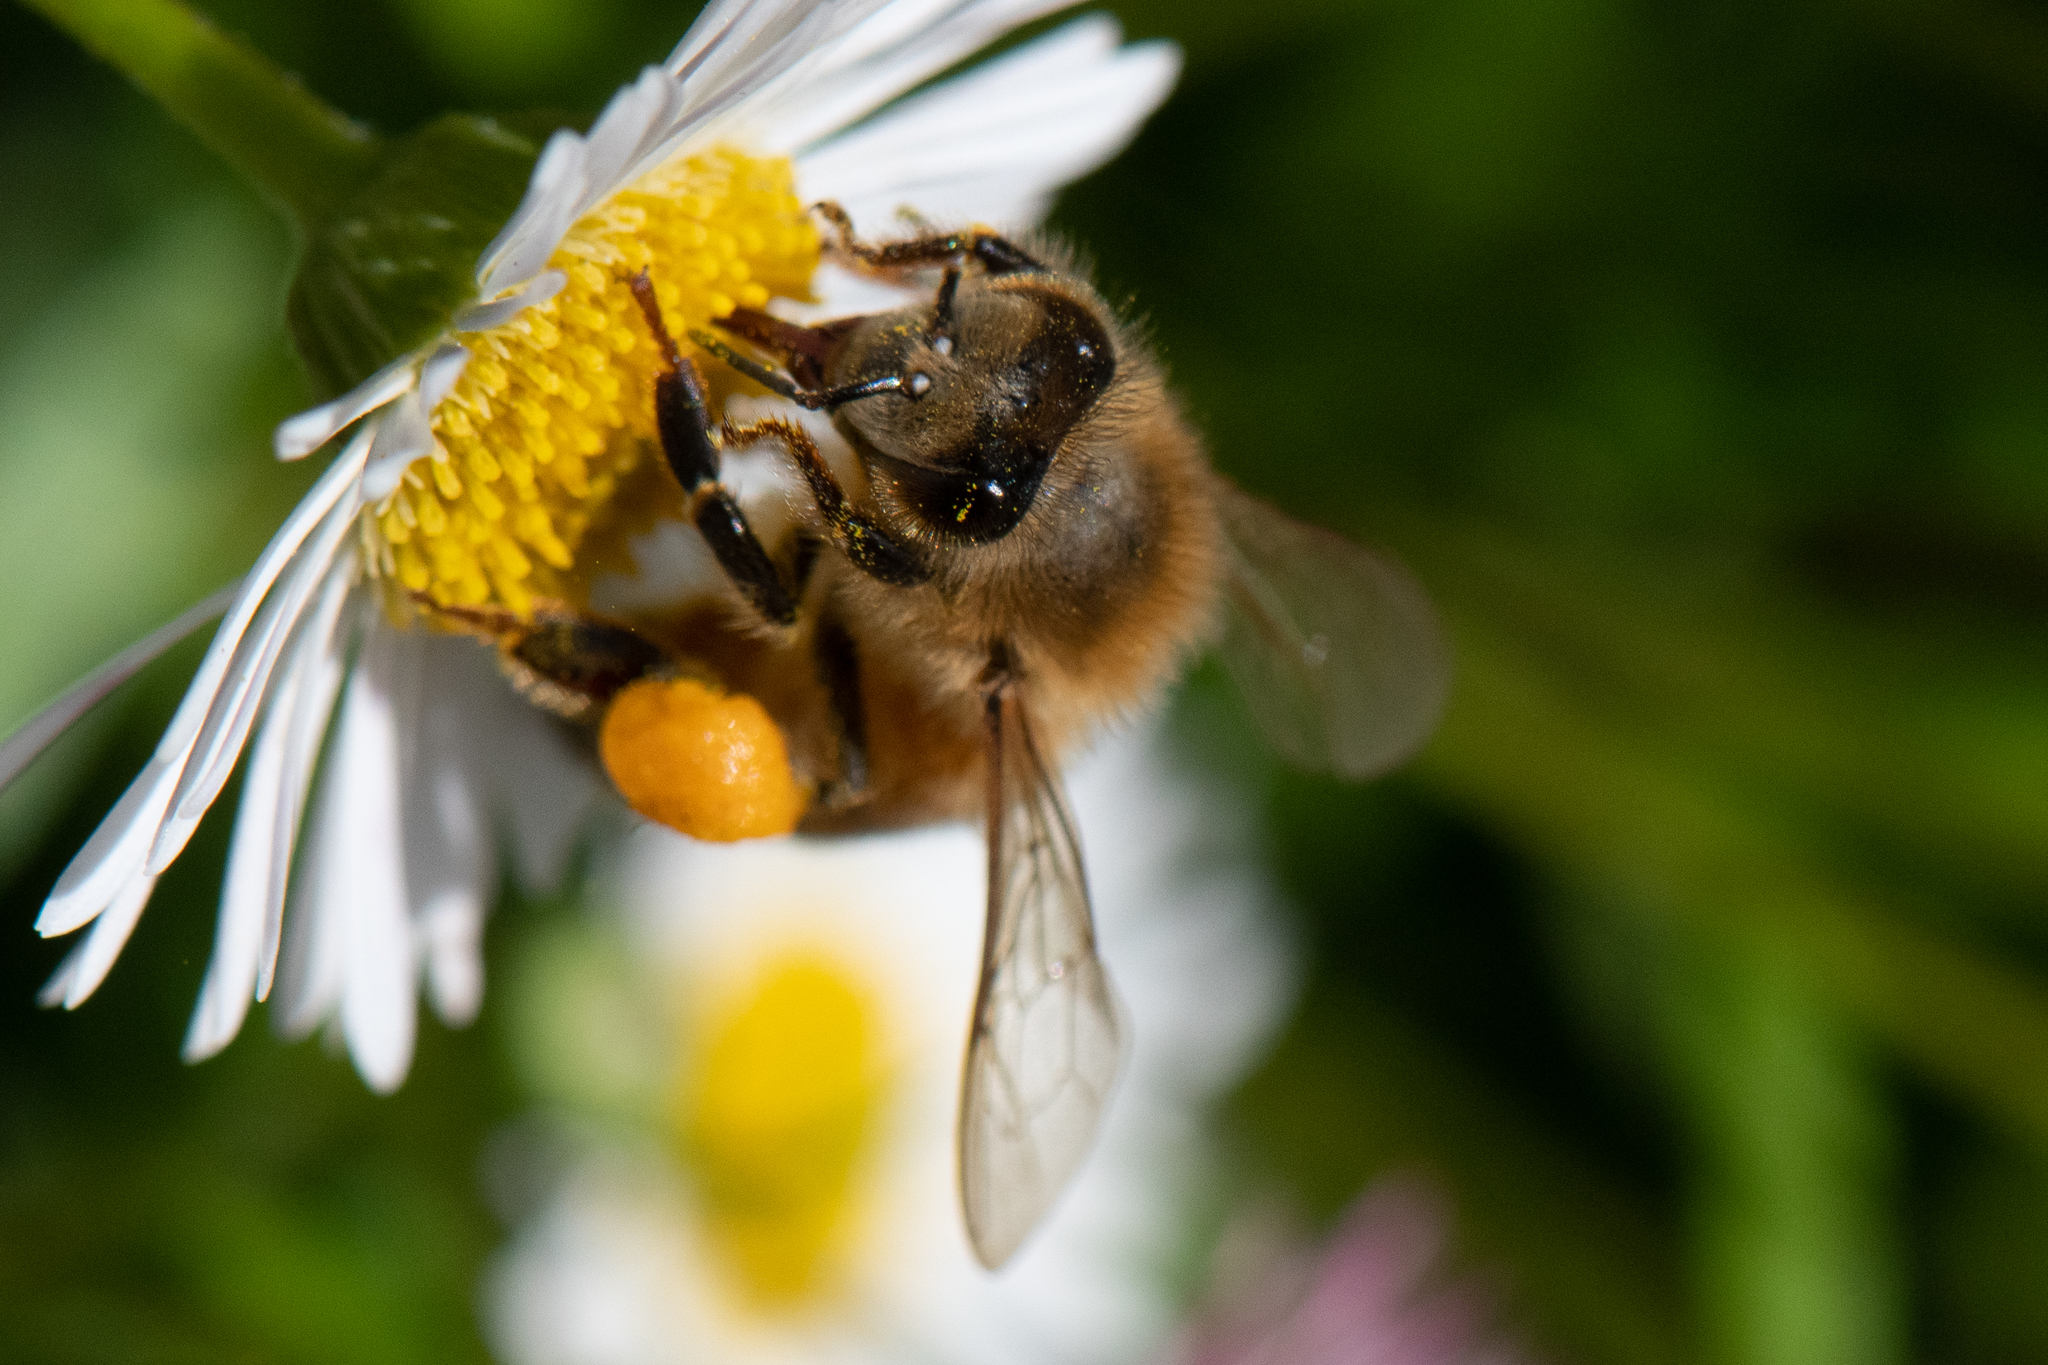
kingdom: Animalia
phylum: Arthropoda
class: Insecta
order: Hymenoptera
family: Apidae
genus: Apis
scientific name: Apis mellifera
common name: Honey bee
